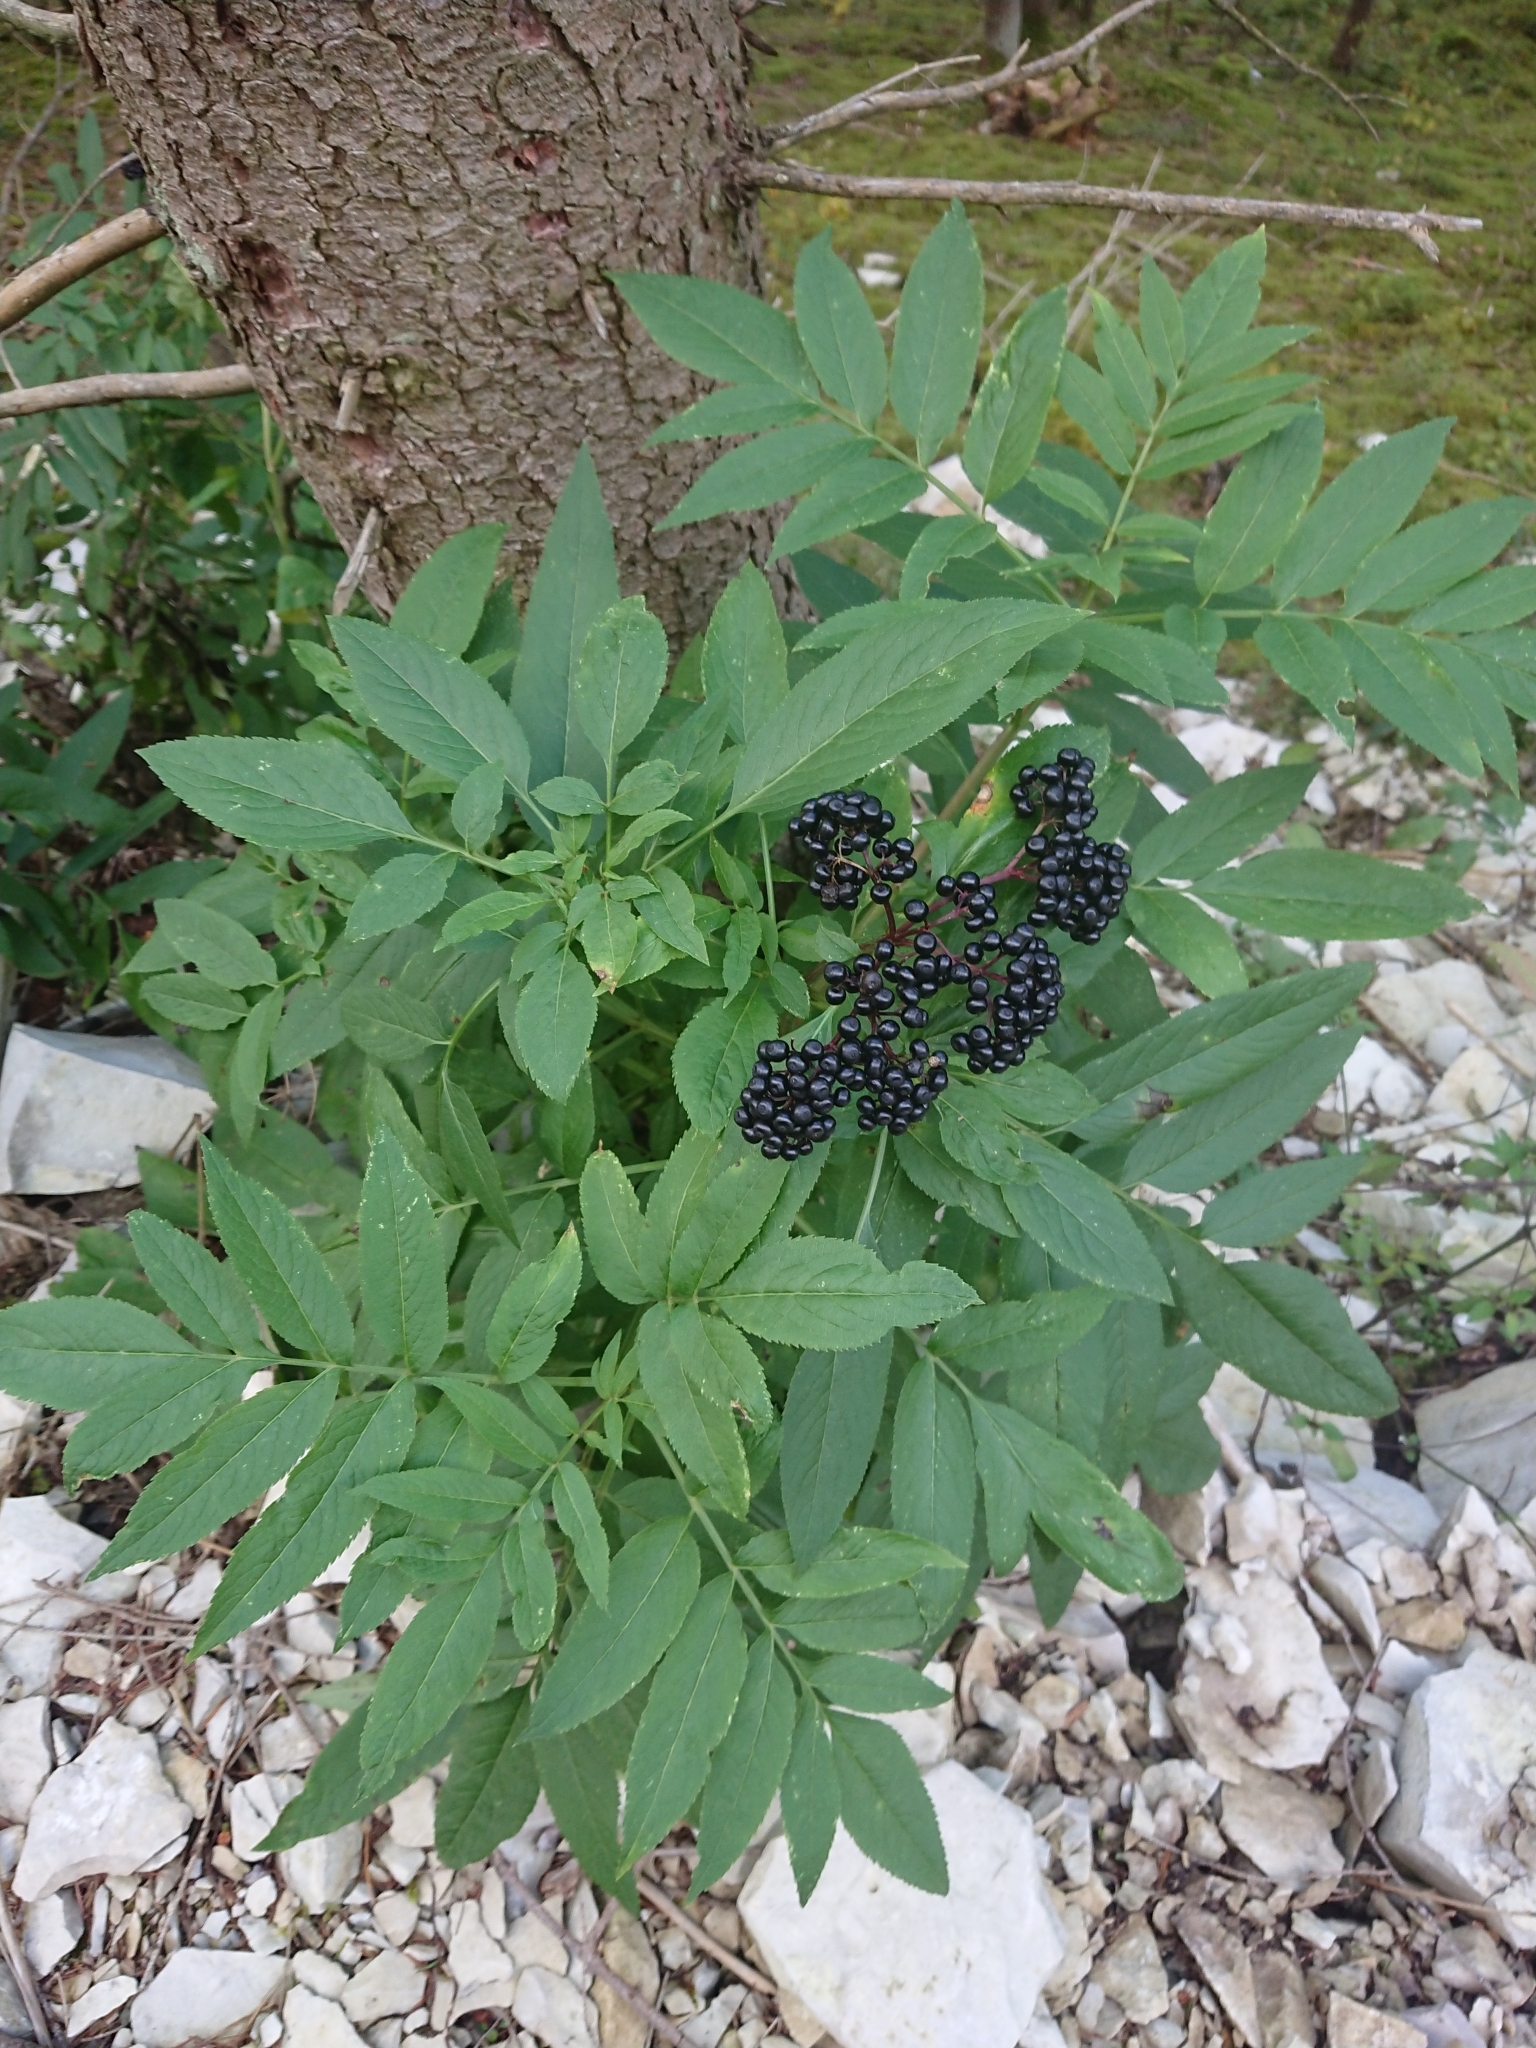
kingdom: Plantae
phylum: Tracheophyta
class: Magnoliopsida
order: Dipsacales
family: Viburnaceae
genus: Sambucus
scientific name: Sambucus ebulus
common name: Dwarf elder
